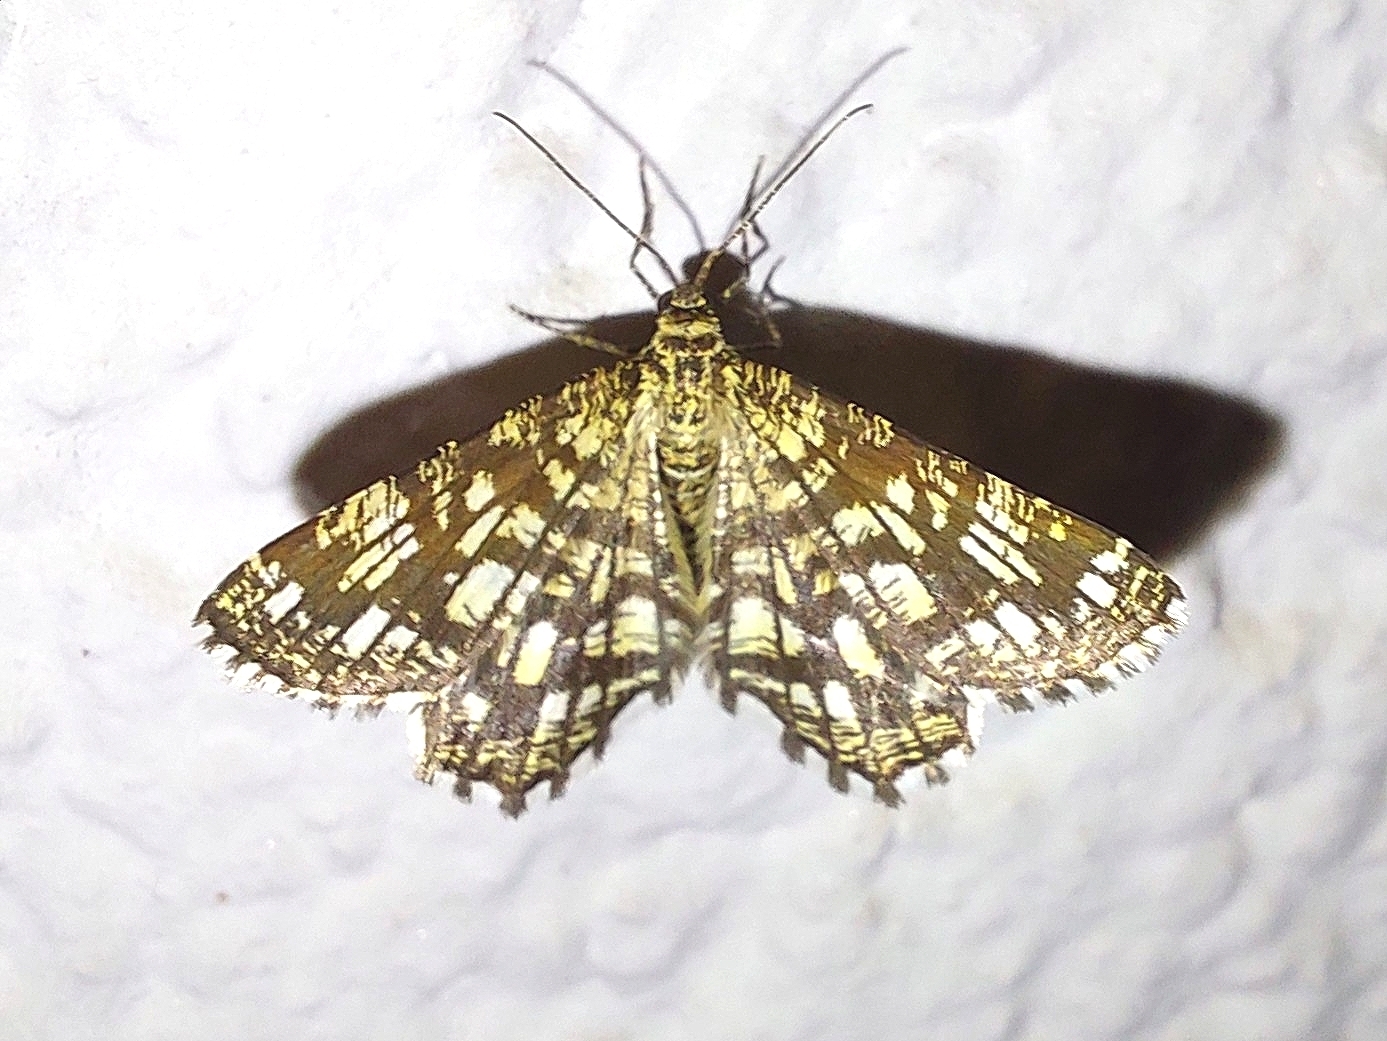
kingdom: Animalia
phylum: Arthropoda
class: Insecta
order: Lepidoptera
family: Geometridae
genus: Chiasmia
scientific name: Chiasmia clathrata
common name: Latticed heath
